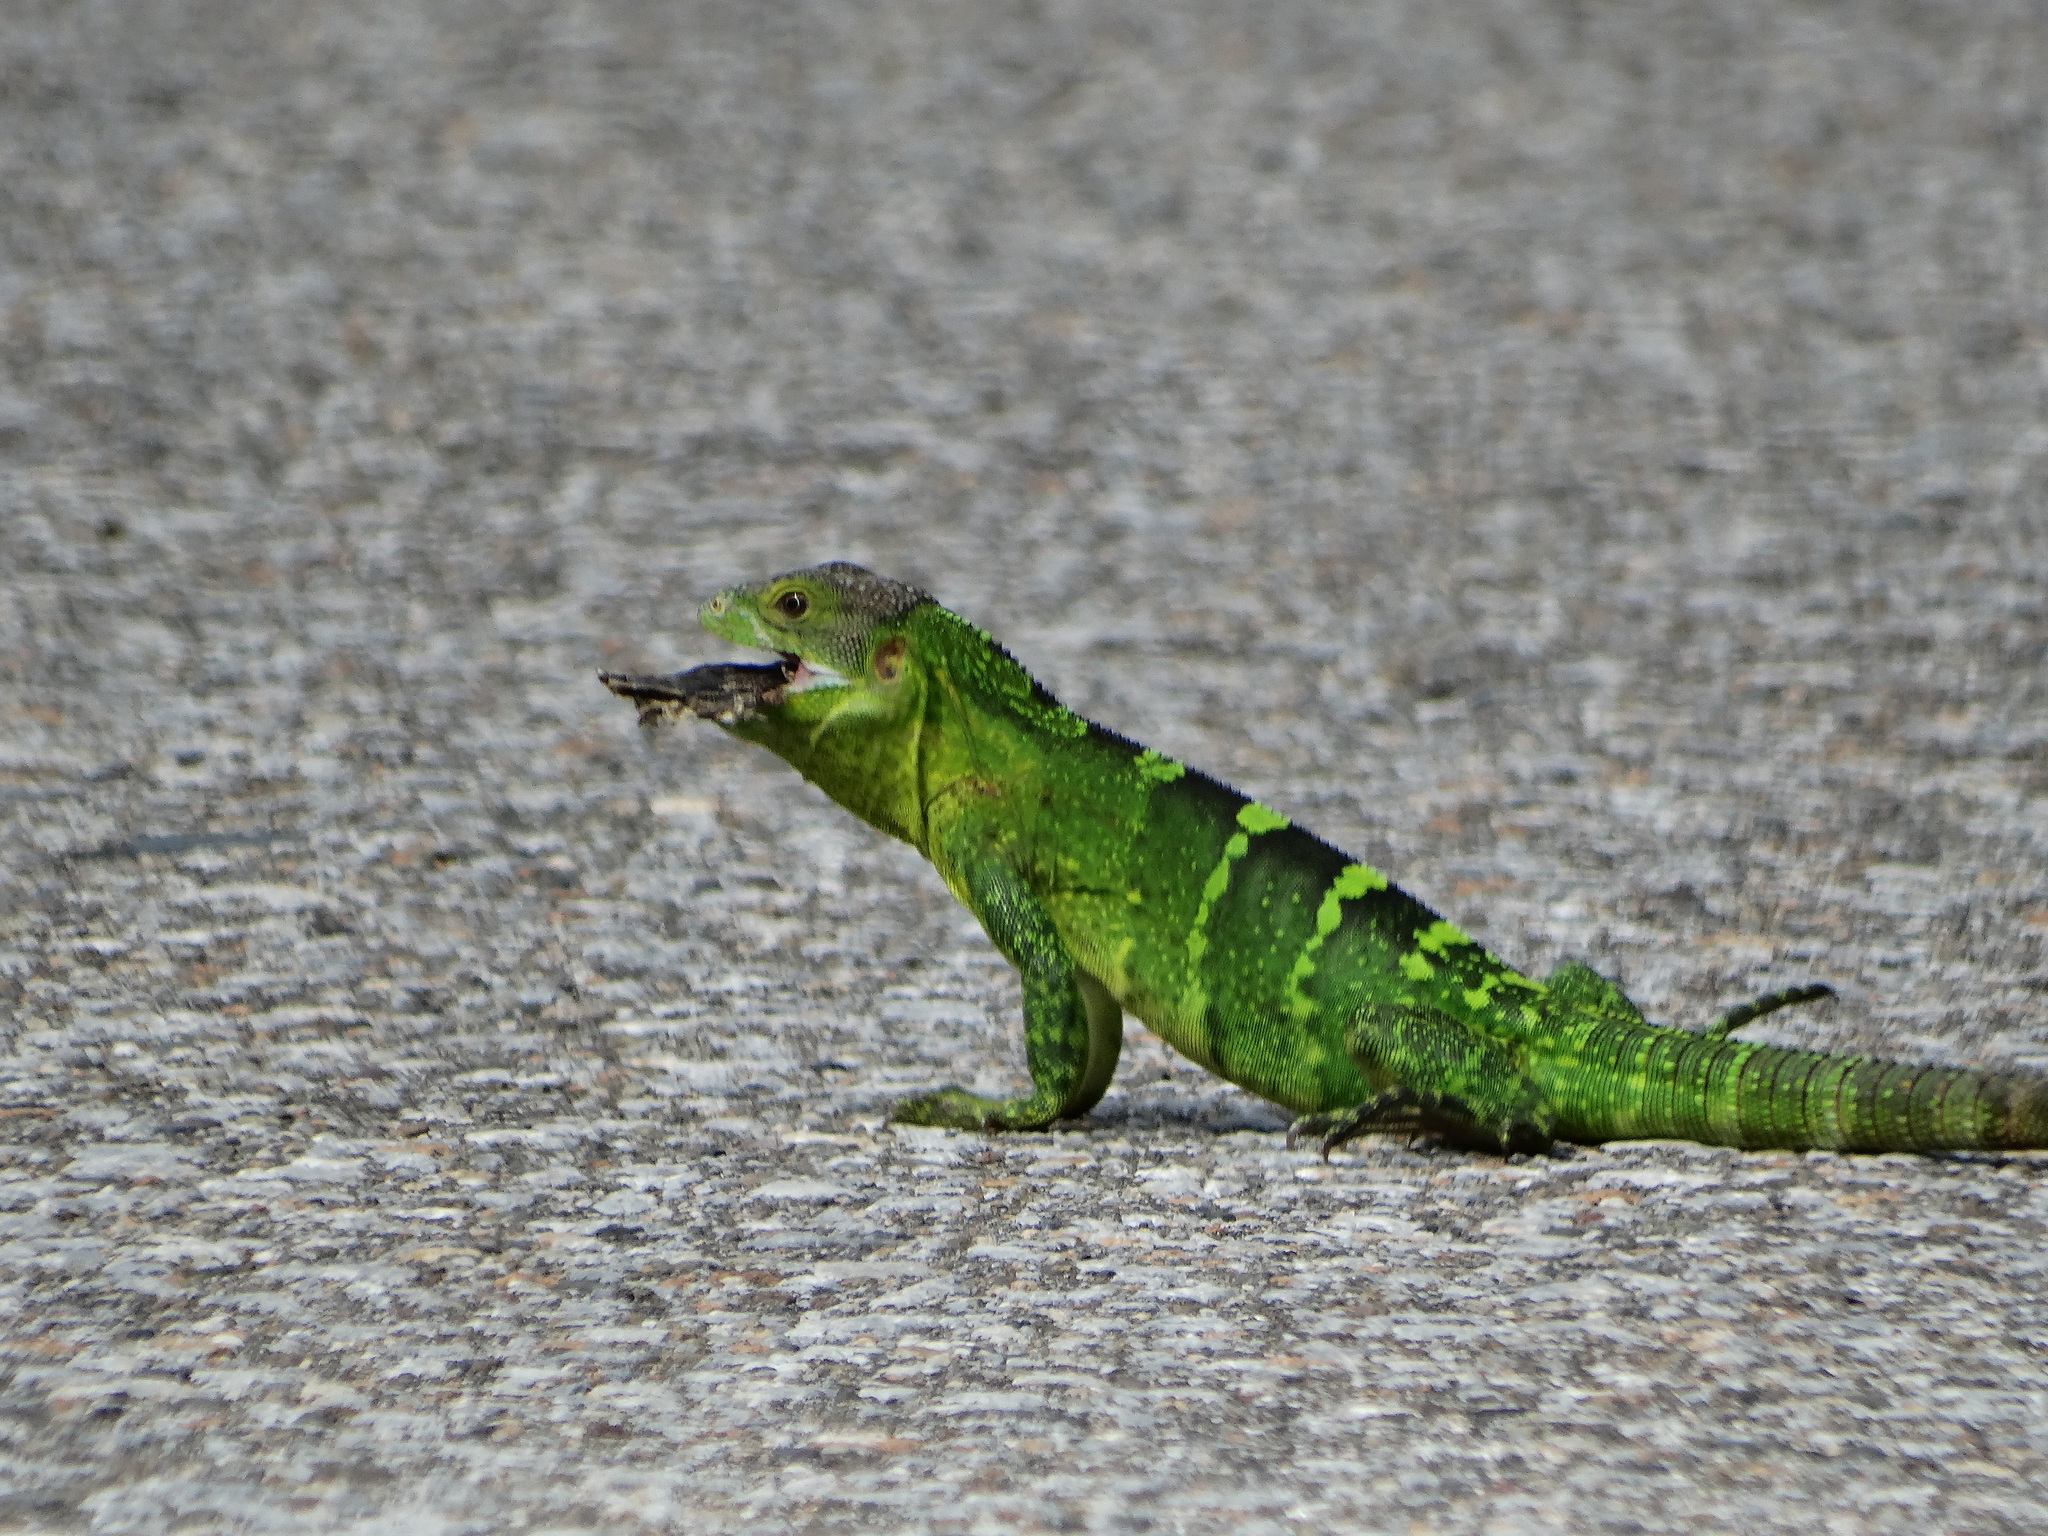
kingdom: Animalia
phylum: Chordata
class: Squamata
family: Iguanidae
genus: Ctenosaura
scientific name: Ctenosaura similis
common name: Black spiny-tailed iguana
